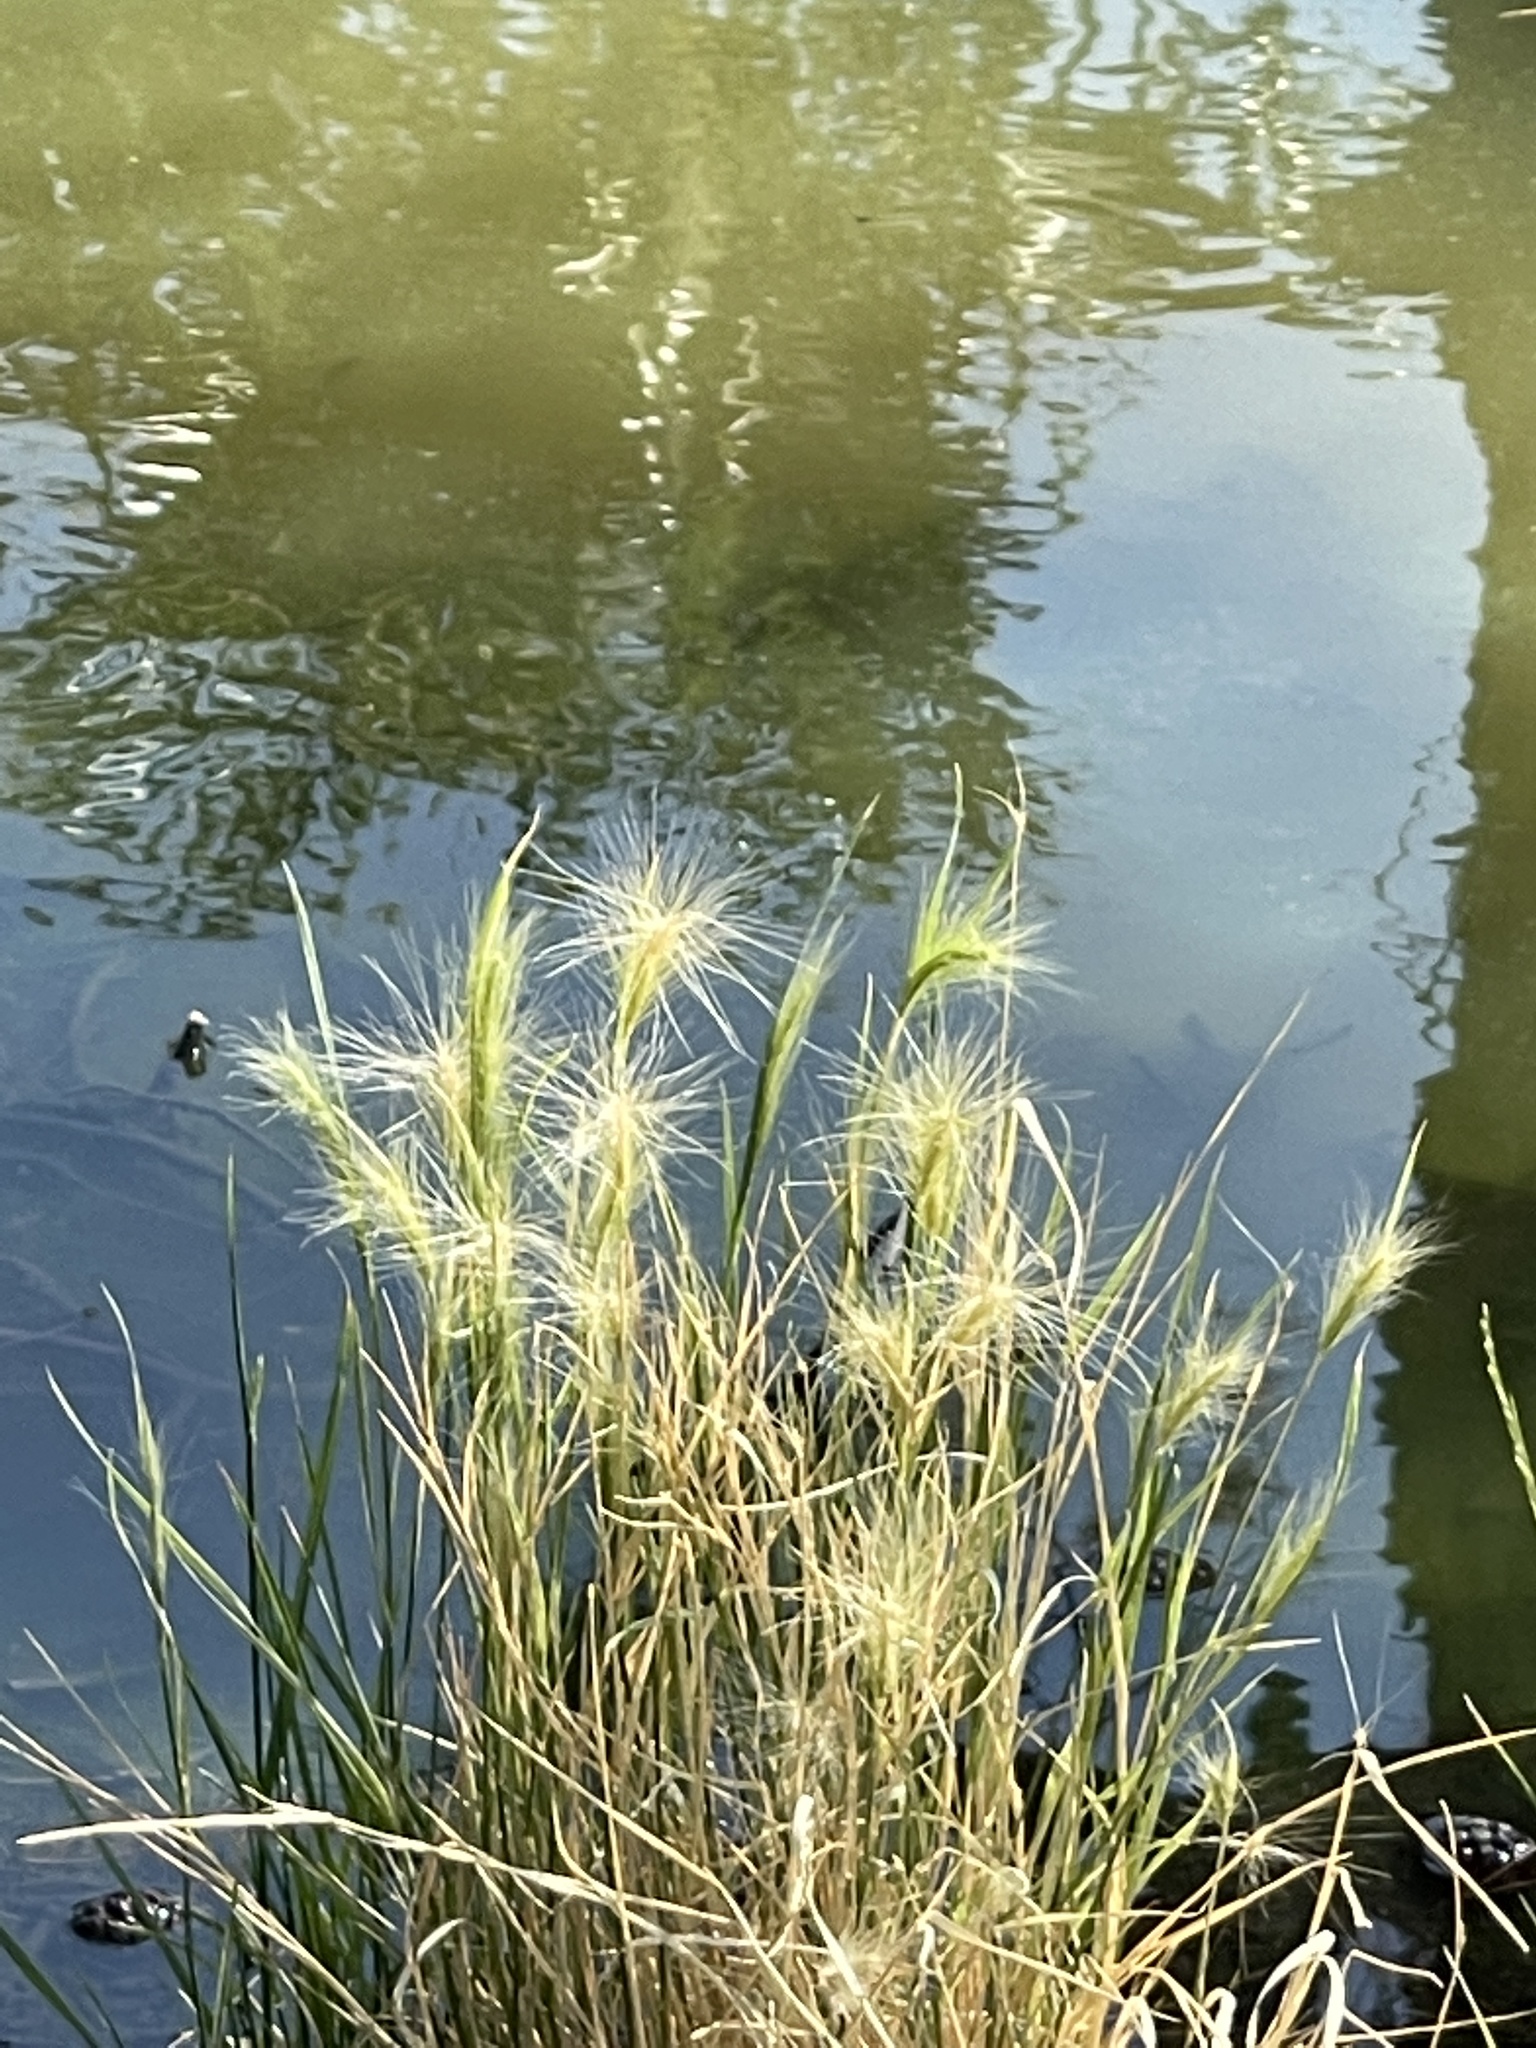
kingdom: Plantae
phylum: Tracheophyta
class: Liliopsida
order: Poales
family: Poaceae
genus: Hordeum
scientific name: Hordeum jubatum
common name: Foxtail barley
